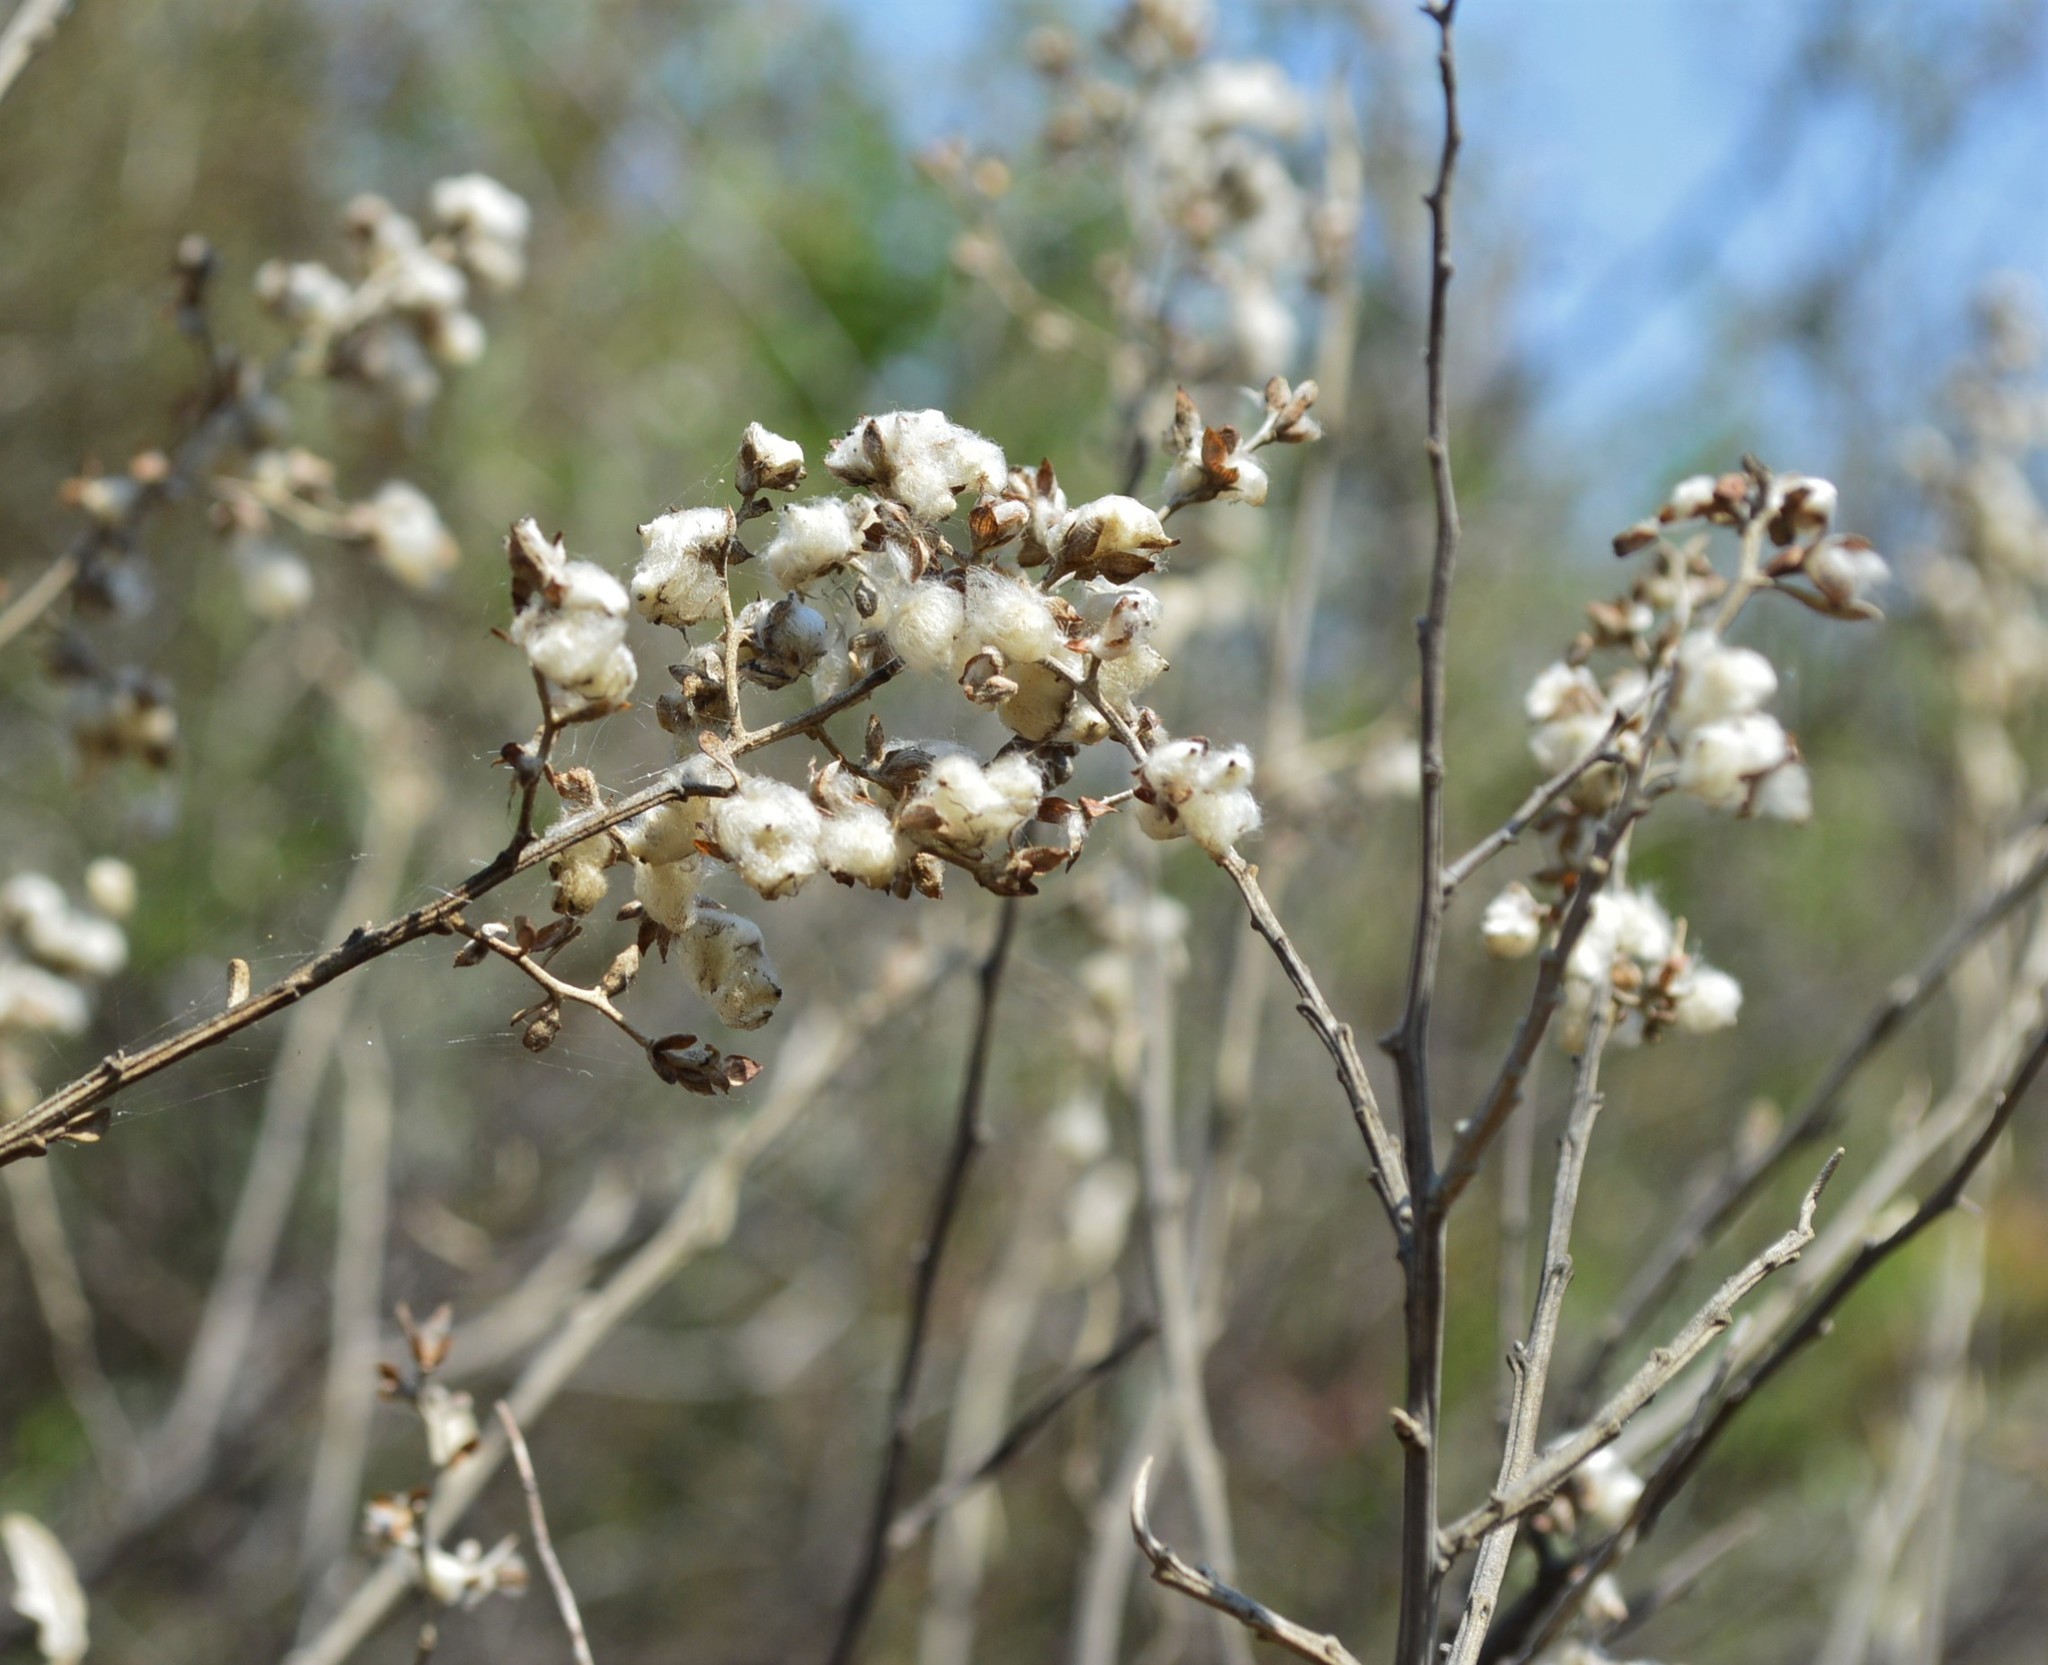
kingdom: Plantae
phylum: Tracheophyta
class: Magnoliopsida
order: Asterales
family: Asteraceae
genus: Tarchonanthus
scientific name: Tarchonanthus camphoratus
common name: Camphorwood
